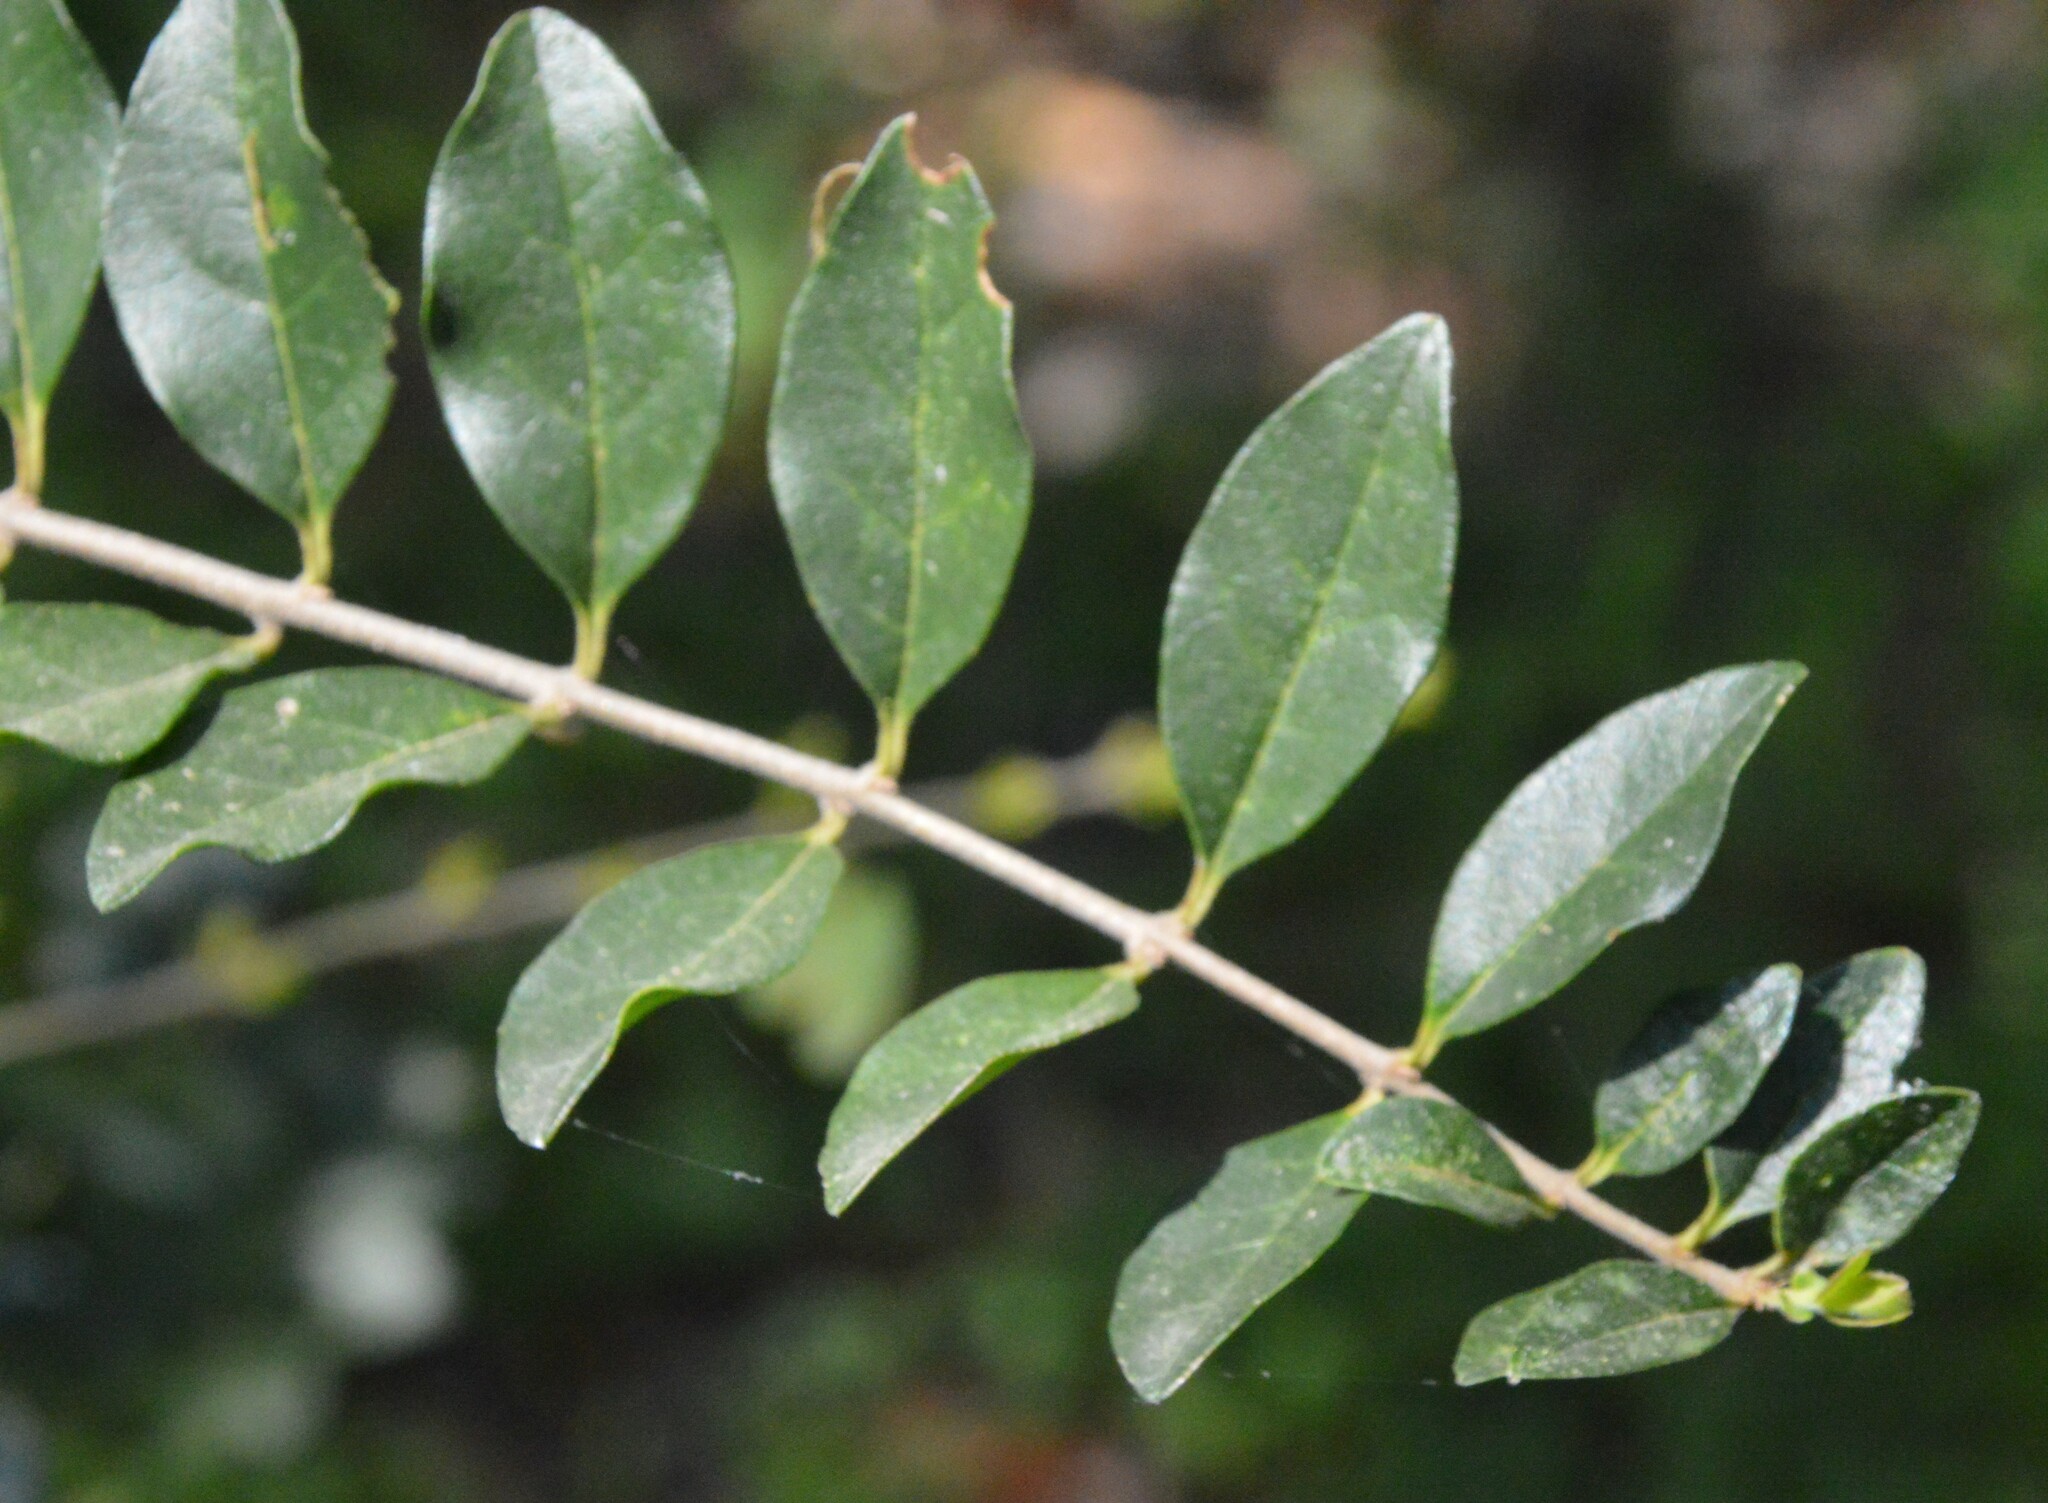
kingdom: Plantae
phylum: Tracheophyta
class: Magnoliopsida
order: Lamiales
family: Oleaceae
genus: Ligustrum
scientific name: Ligustrum sinense
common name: Chinese privet
